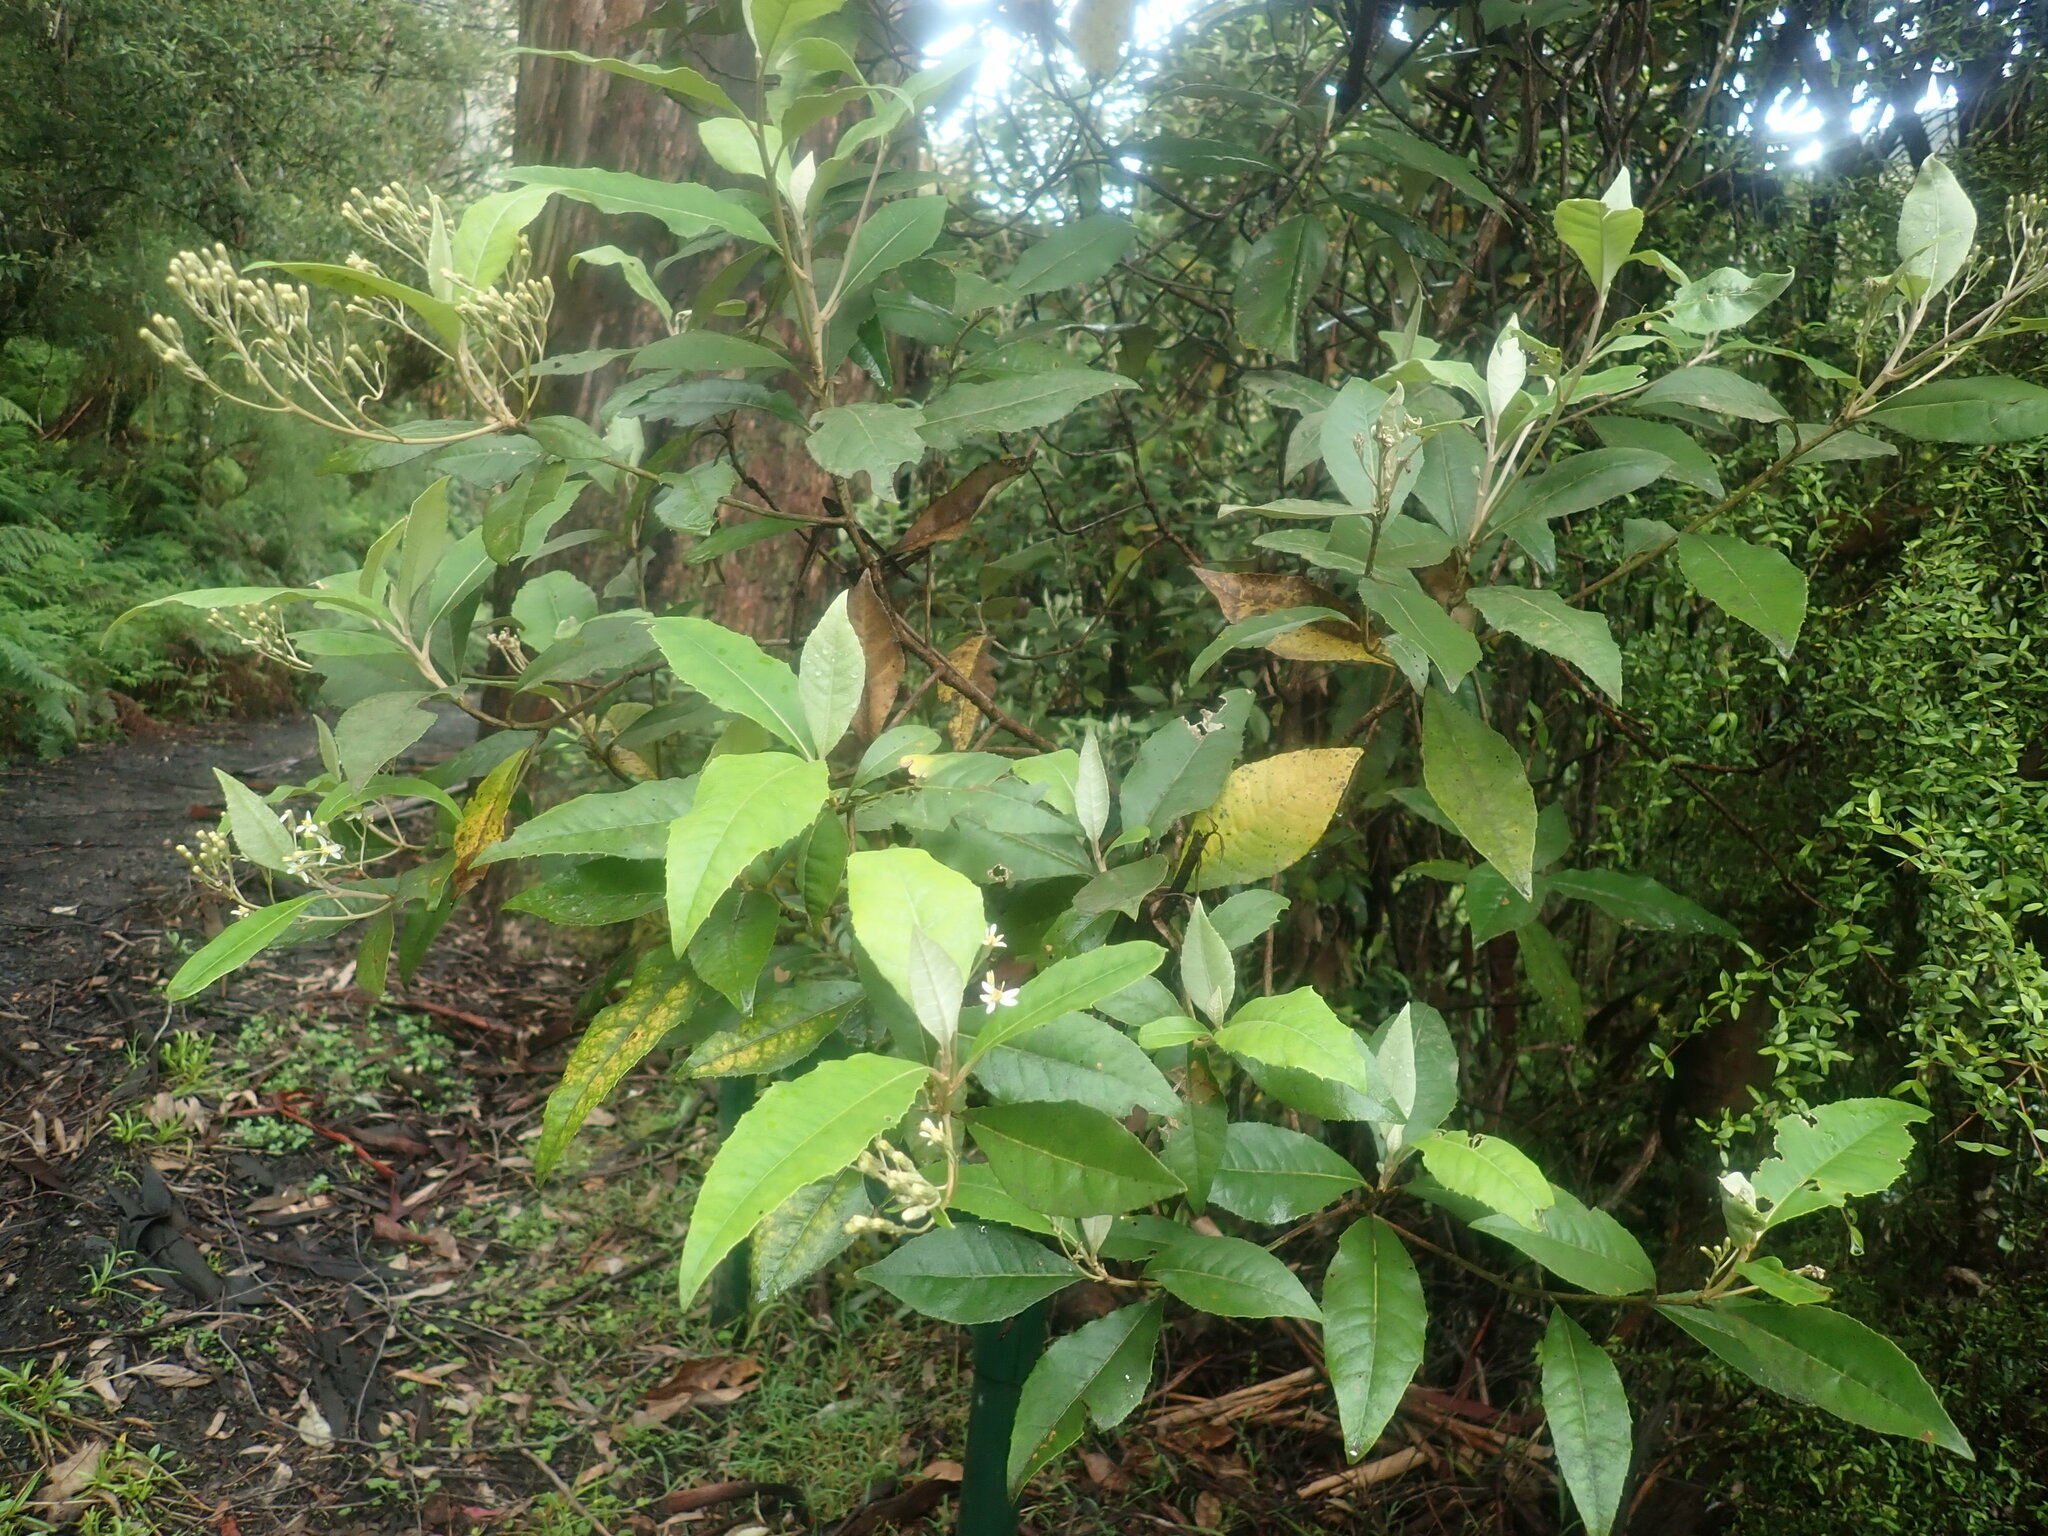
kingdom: Plantae
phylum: Tracheophyta
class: Magnoliopsida
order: Asterales
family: Asteraceae
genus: Olearia
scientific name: Olearia argophylla
